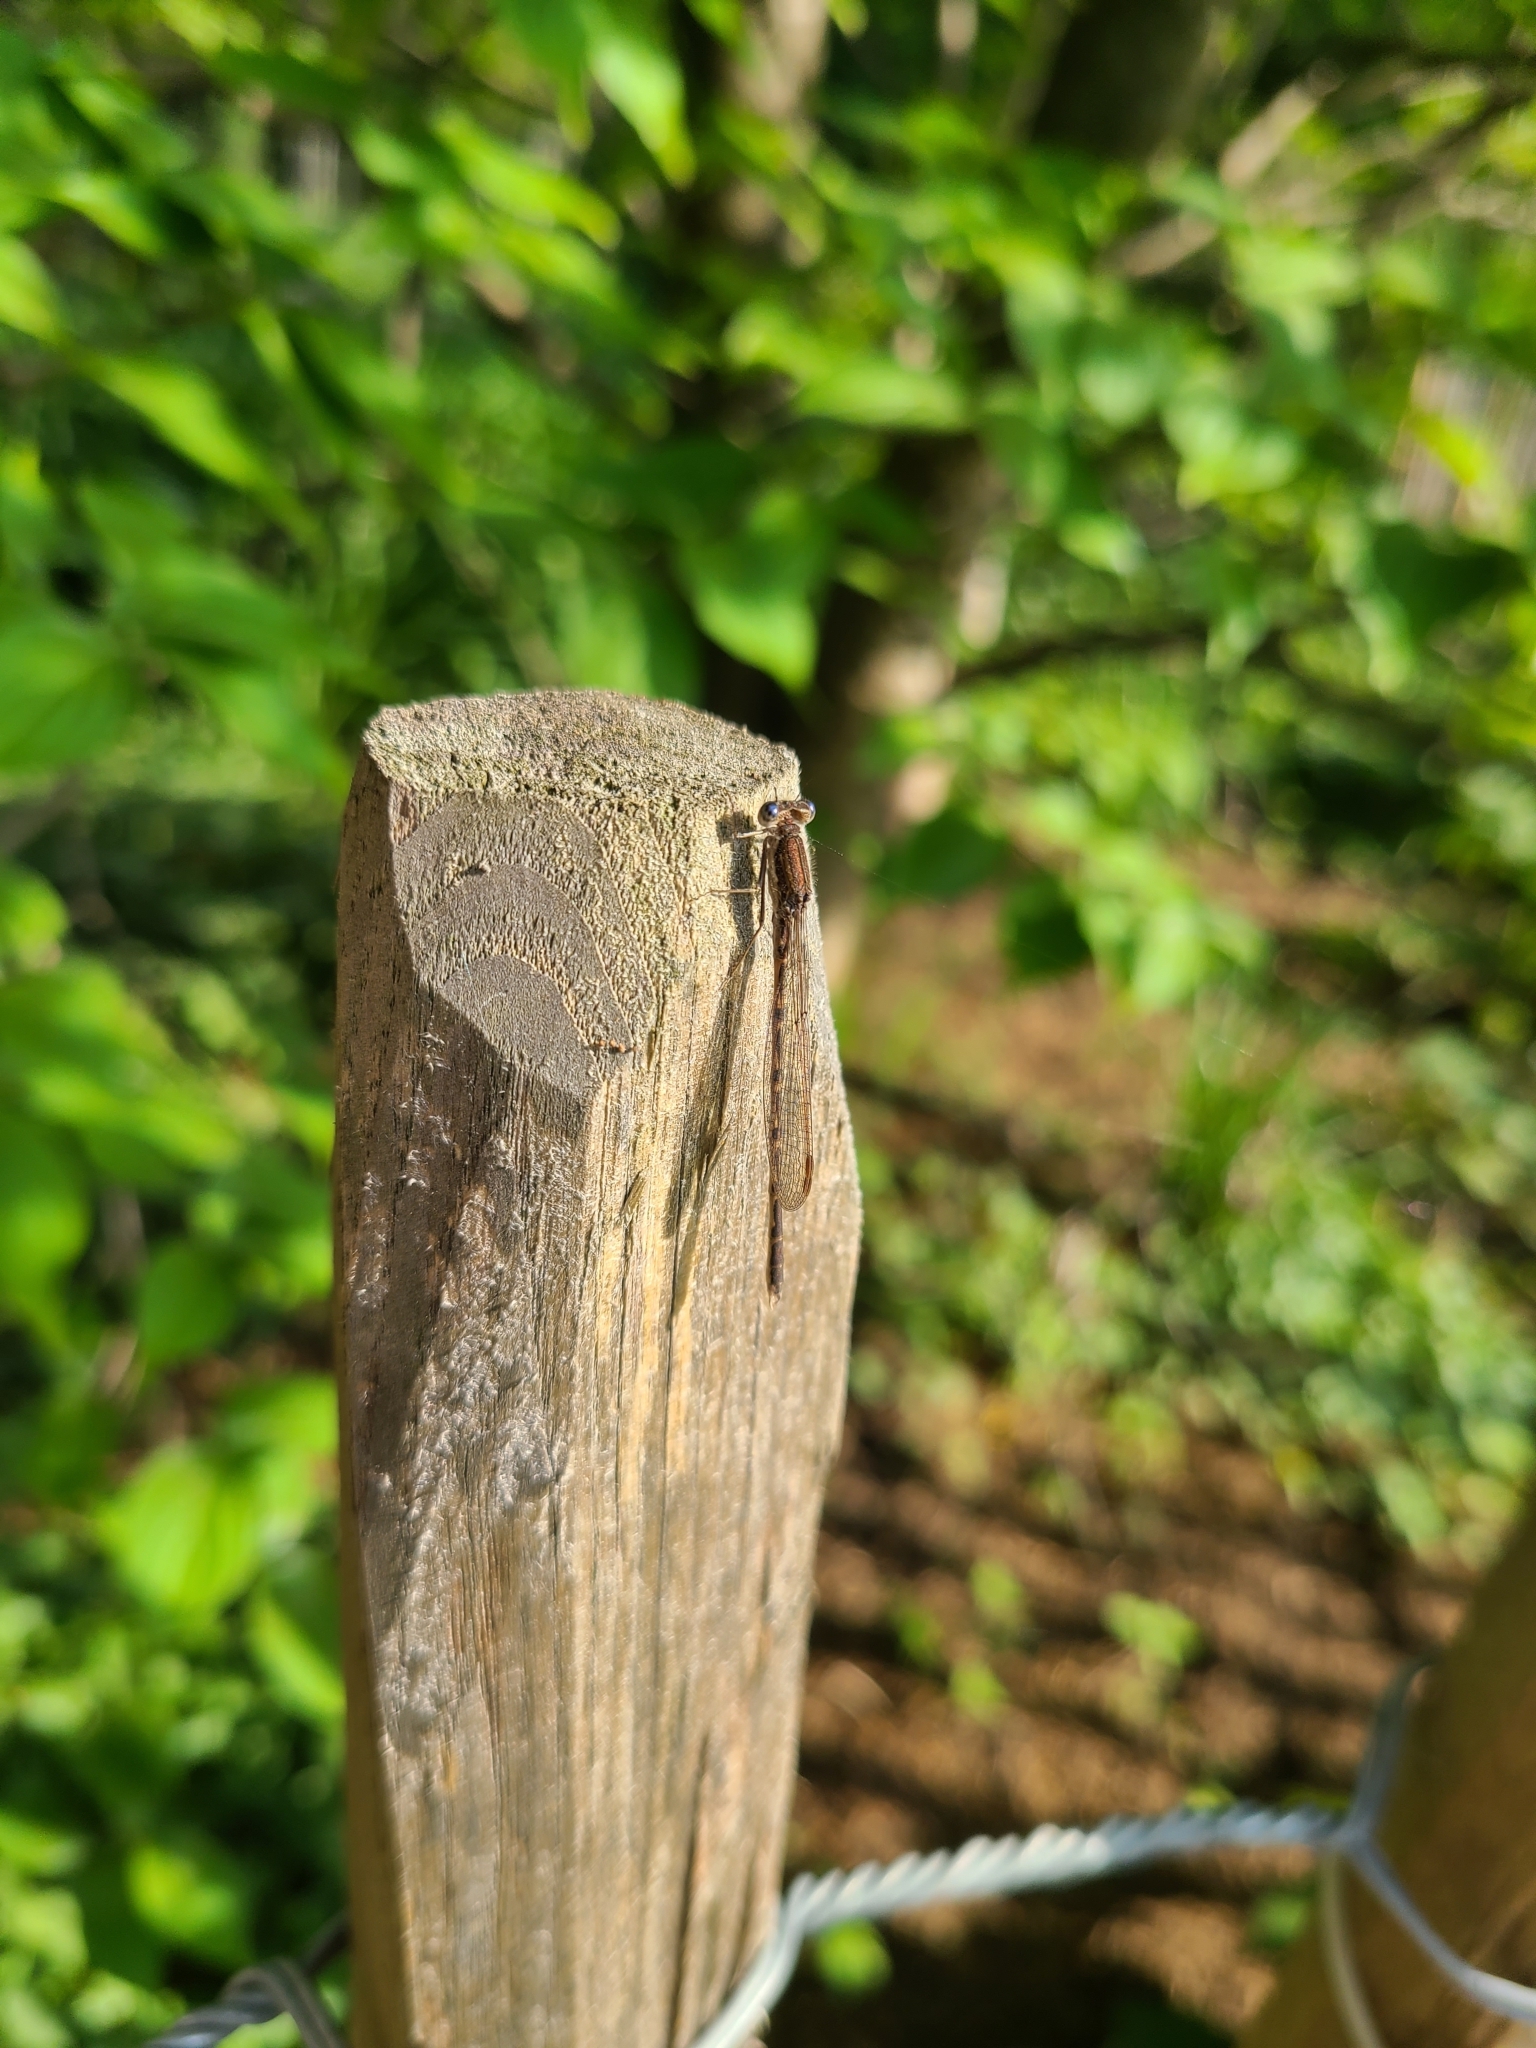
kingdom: Animalia
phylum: Arthropoda
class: Insecta
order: Odonata
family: Lestidae
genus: Sympecma
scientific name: Sympecma fusca
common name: Common winter damsel
